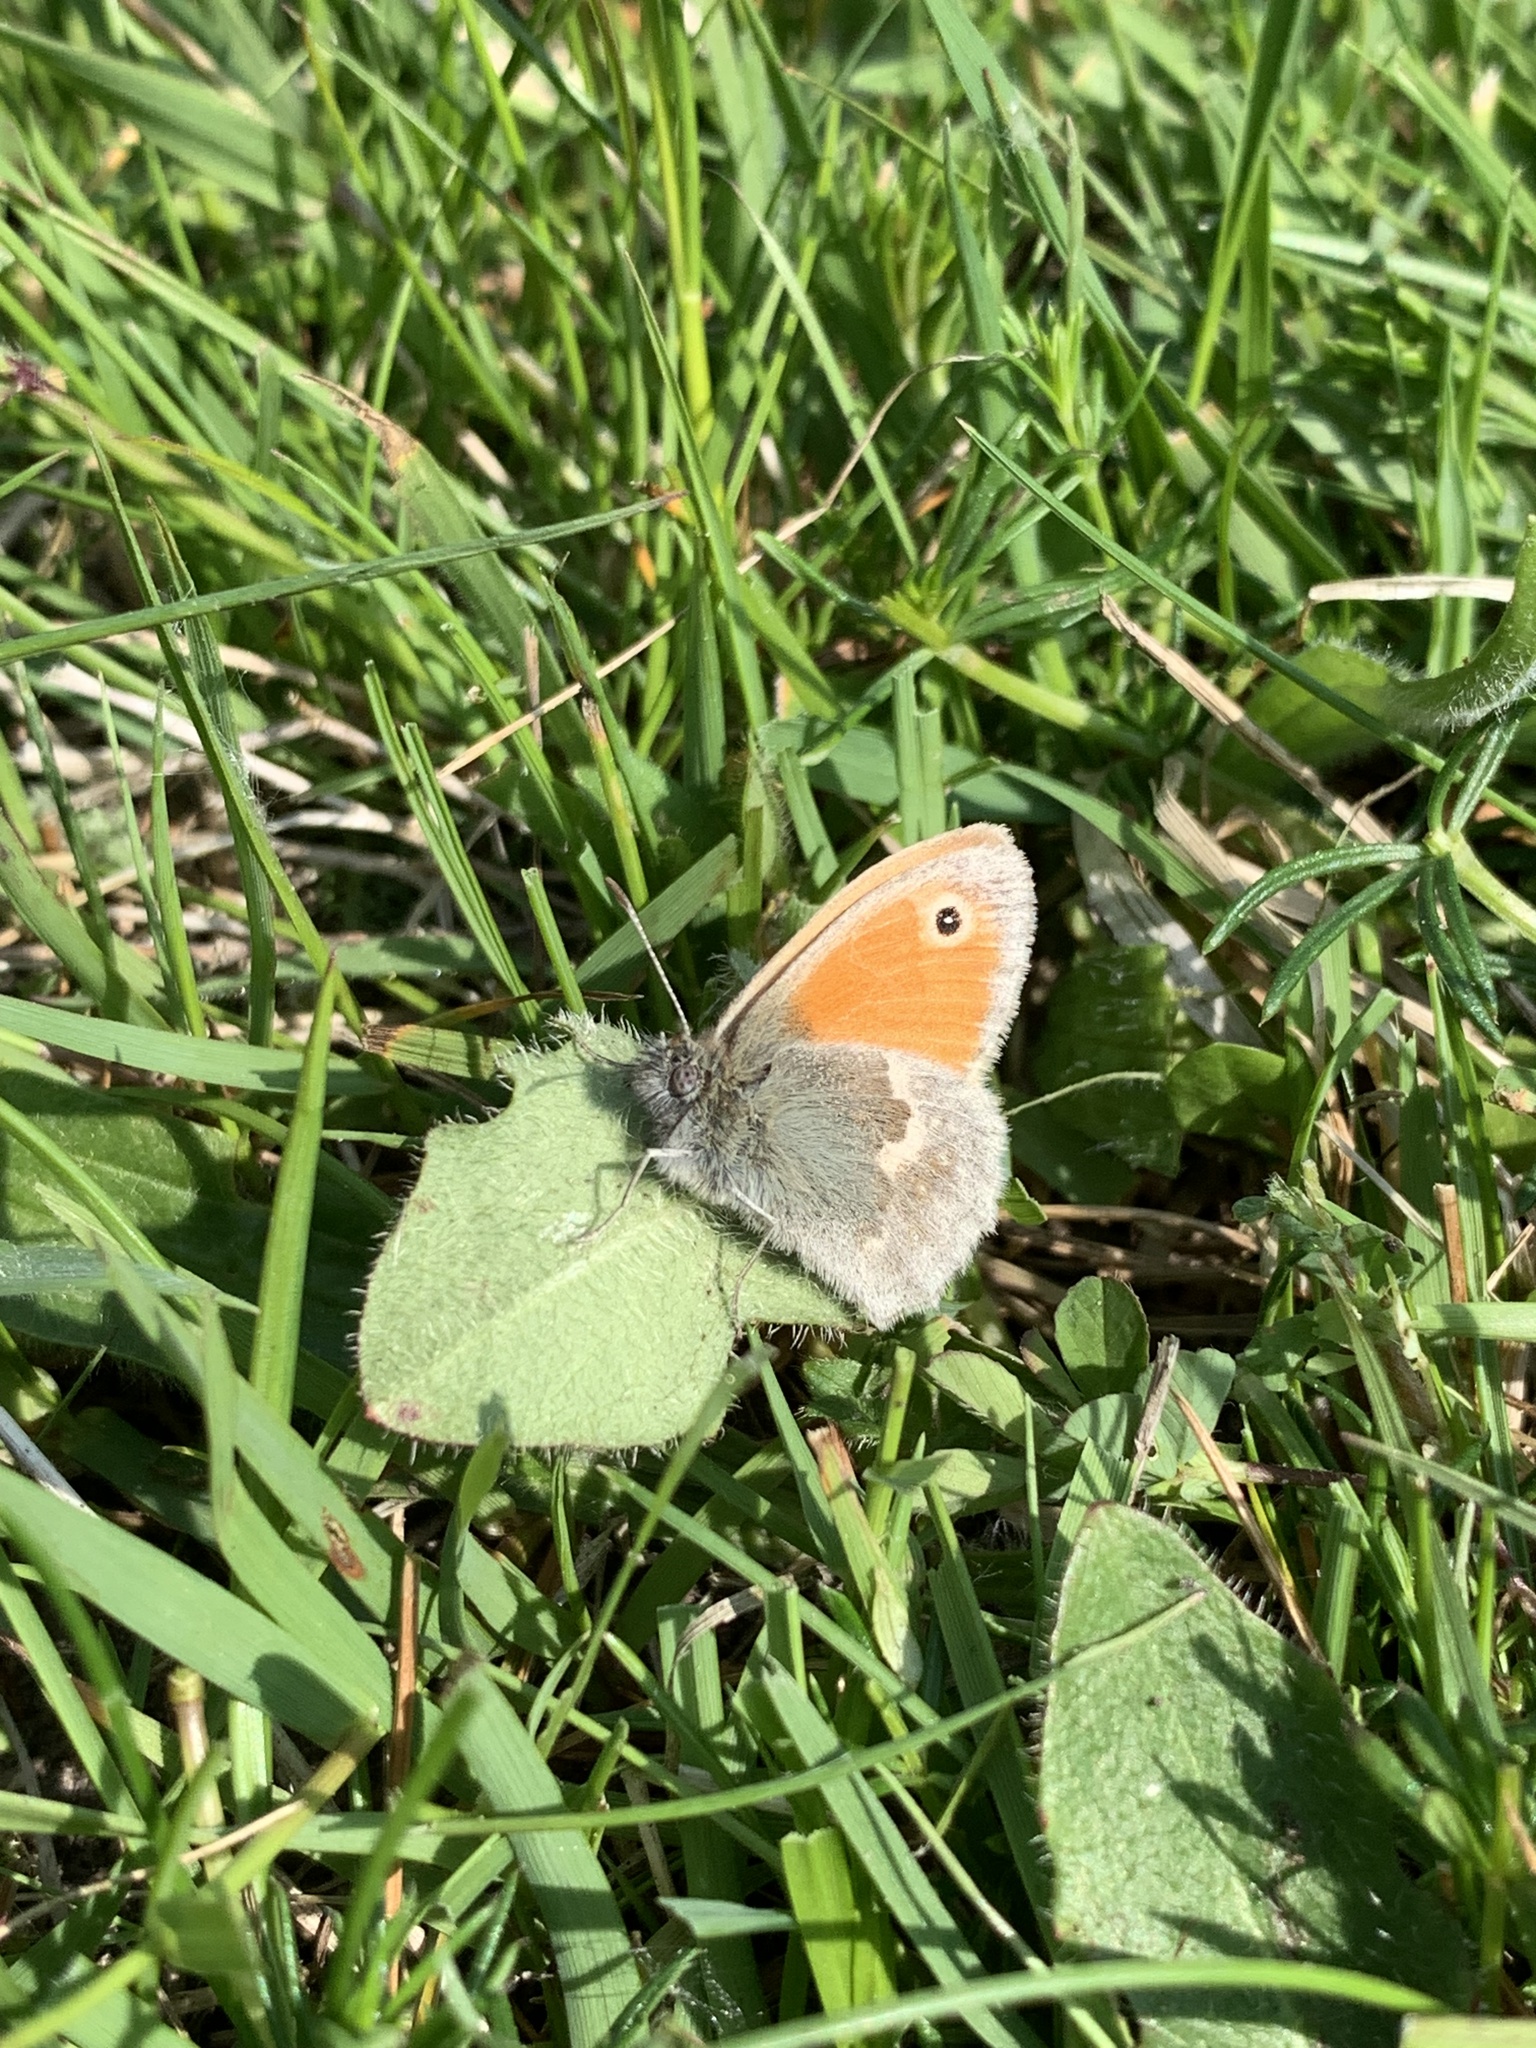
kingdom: Animalia
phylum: Arthropoda
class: Insecta
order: Lepidoptera
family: Nymphalidae
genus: Coenonympha
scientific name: Coenonympha pamphilus
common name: Small heath
